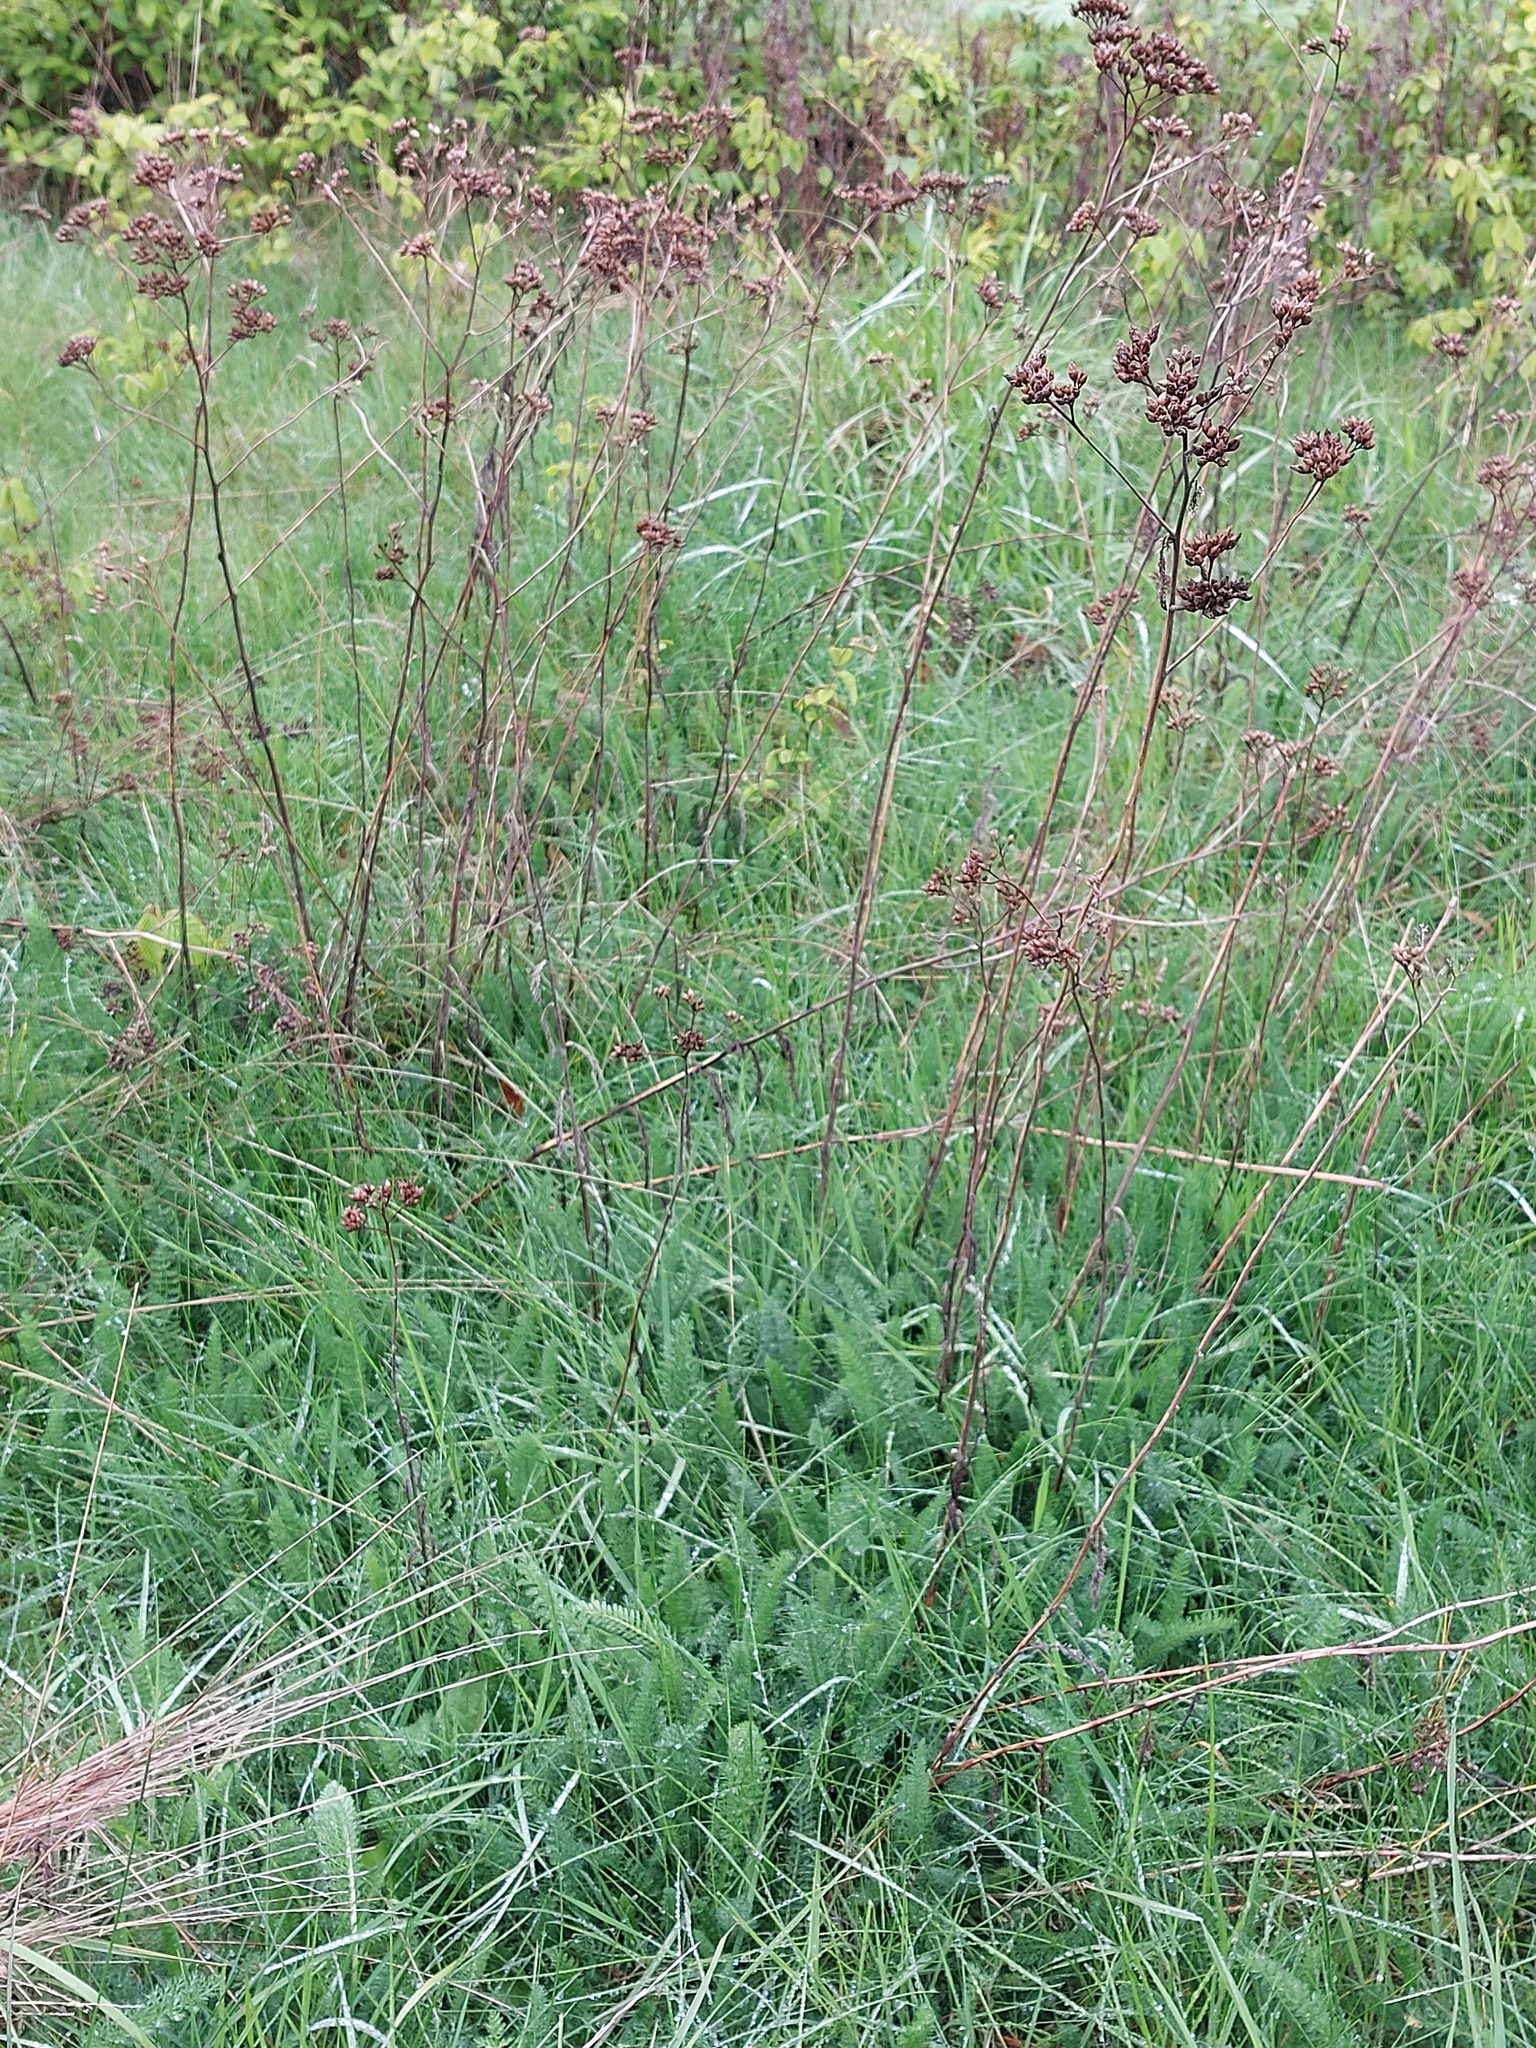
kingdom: Plantae
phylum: Tracheophyta
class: Magnoliopsida
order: Asterales
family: Asteraceae
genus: Achillea
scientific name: Achillea millefolium
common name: Yarrow
